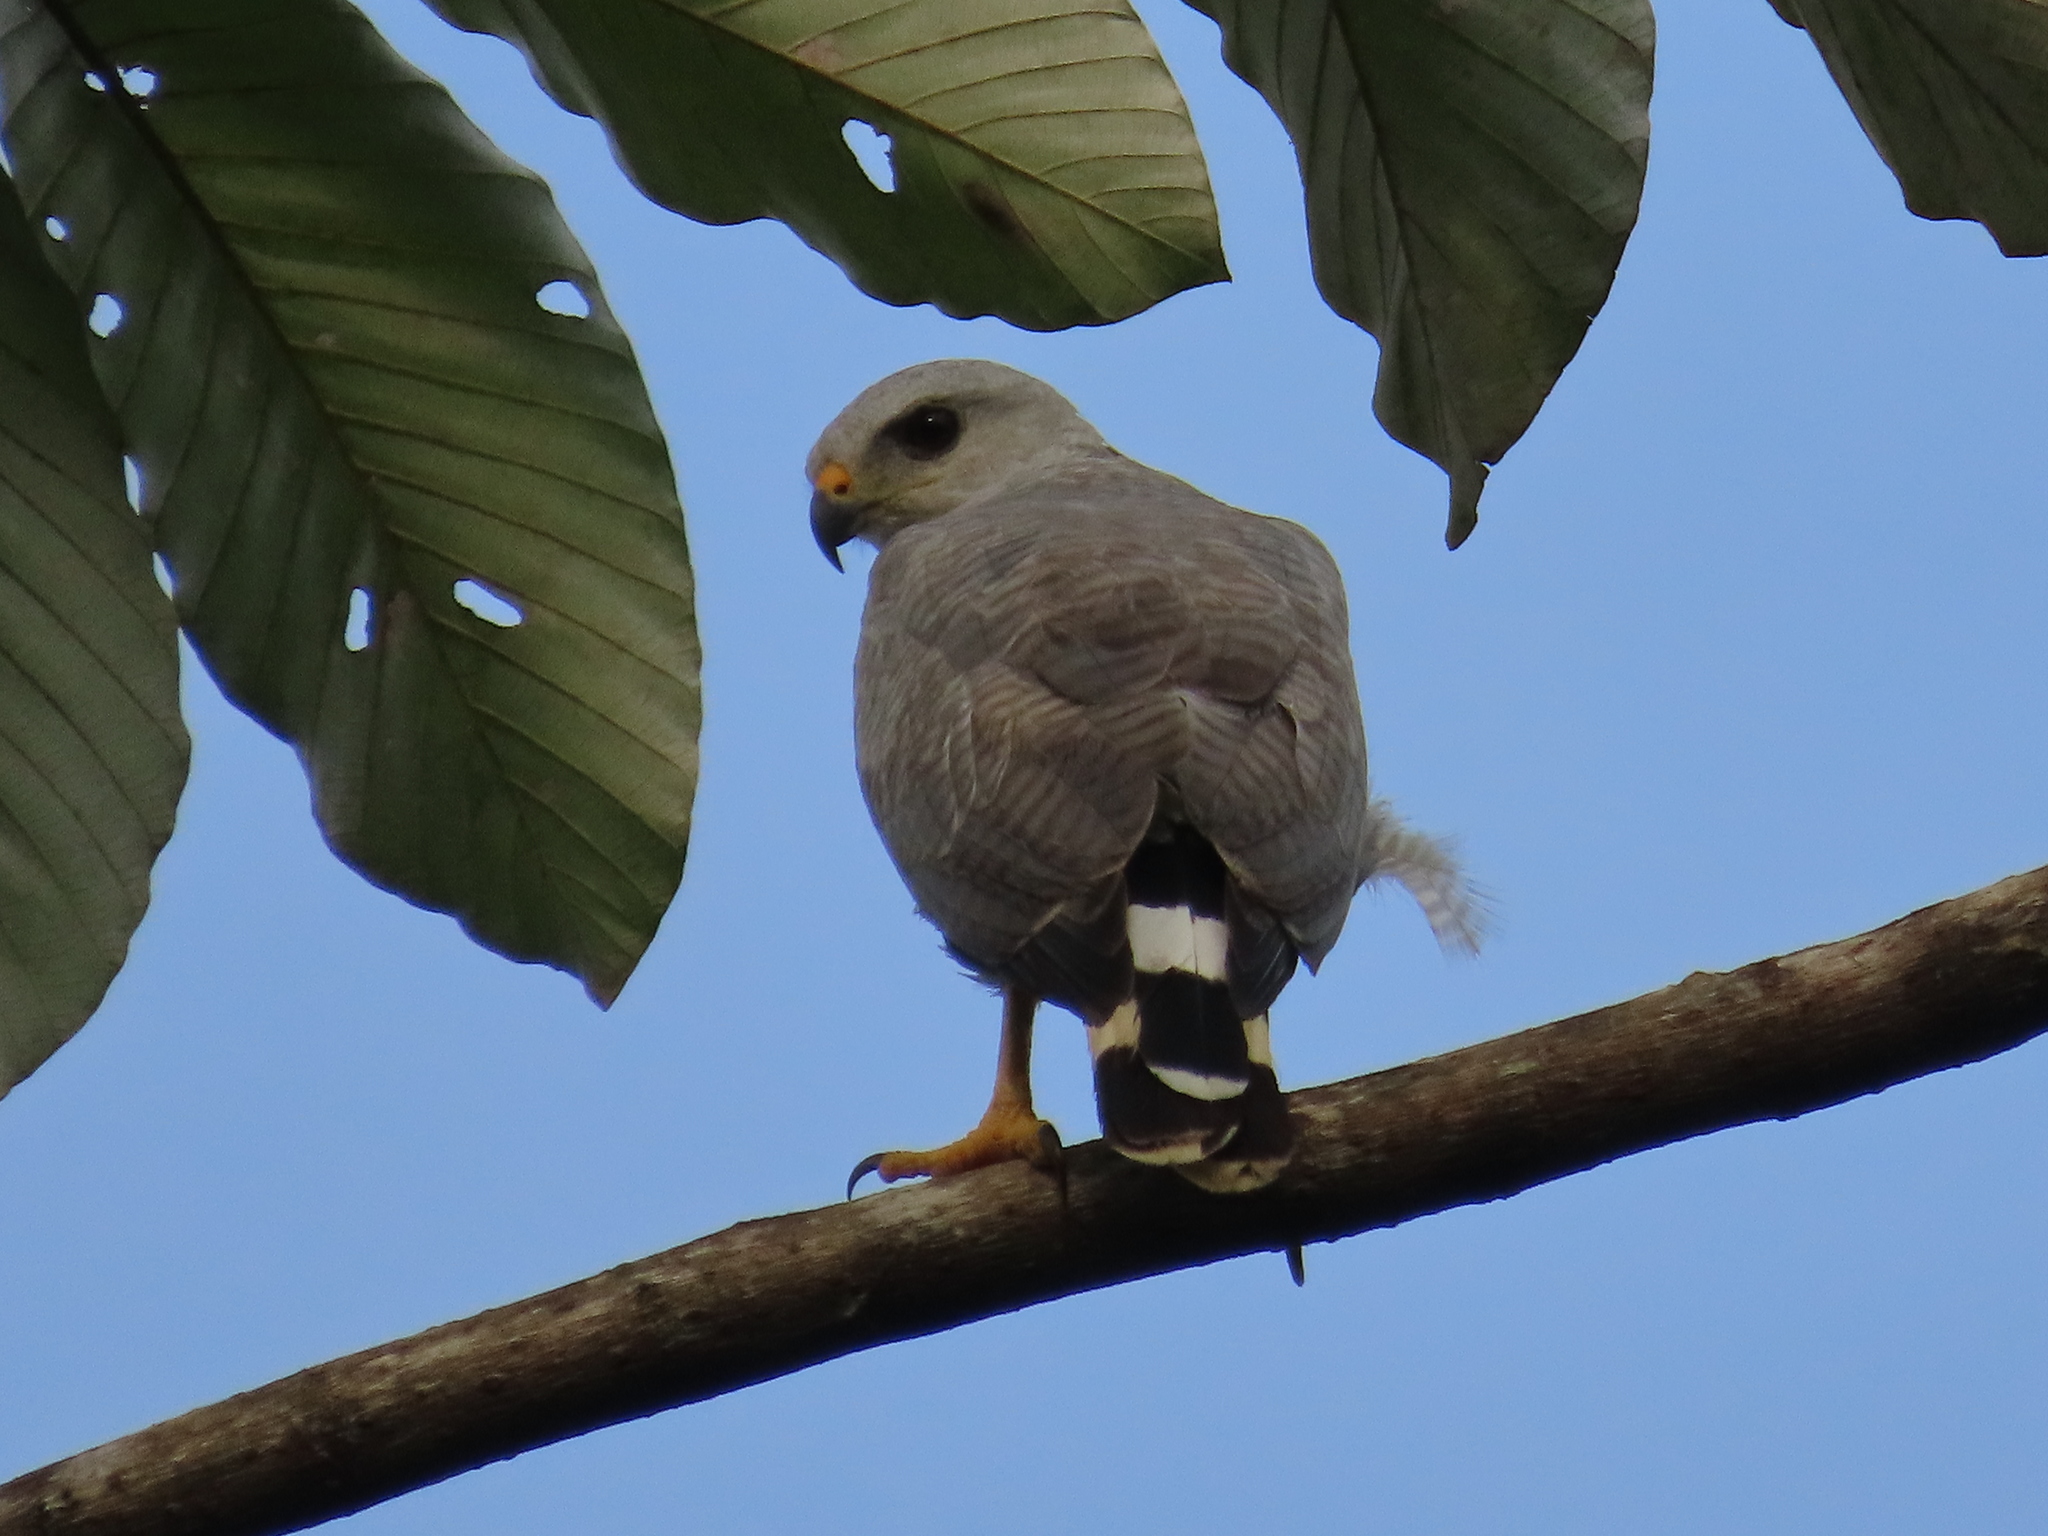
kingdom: Animalia
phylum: Chordata
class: Aves
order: Accipitriformes
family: Accipitridae
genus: Buteo
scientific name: Buteo nitidus
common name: Grey-lined hawk
